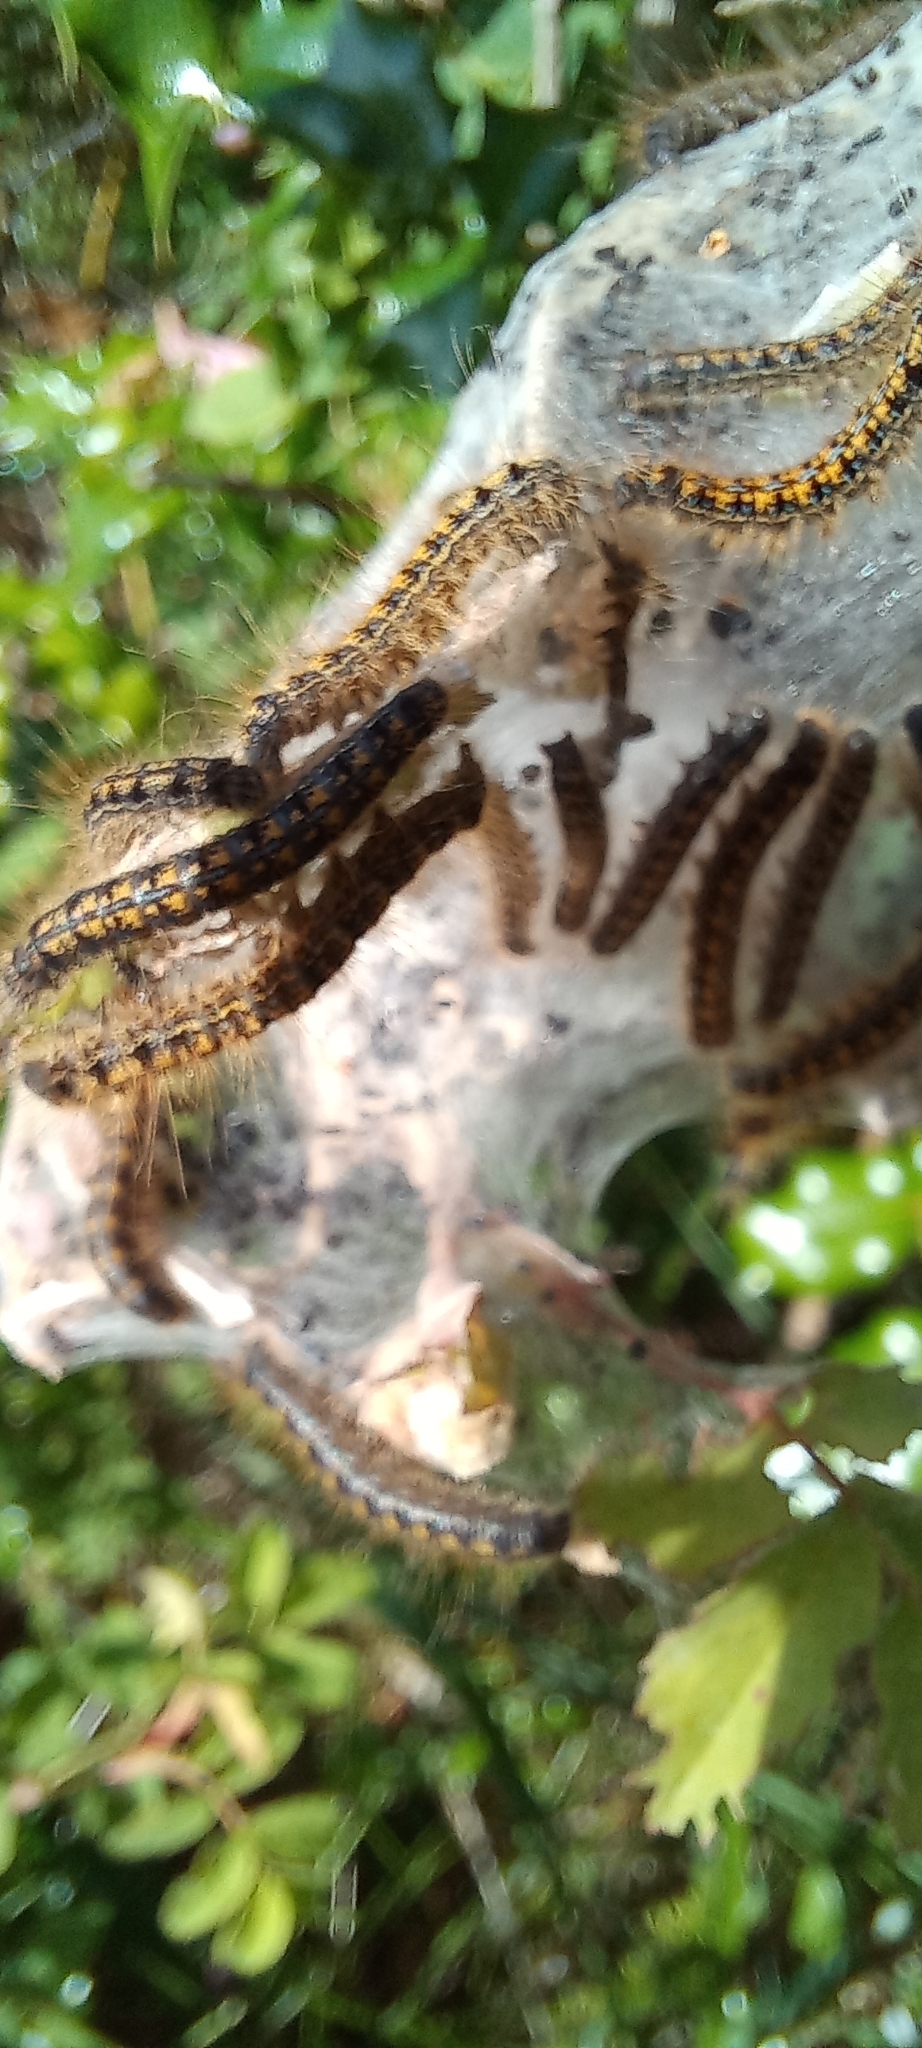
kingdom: Animalia
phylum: Arthropoda
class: Insecta
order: Lepidoptera
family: Lasiocampidae
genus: Malacosoma
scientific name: Malacosoma californica
